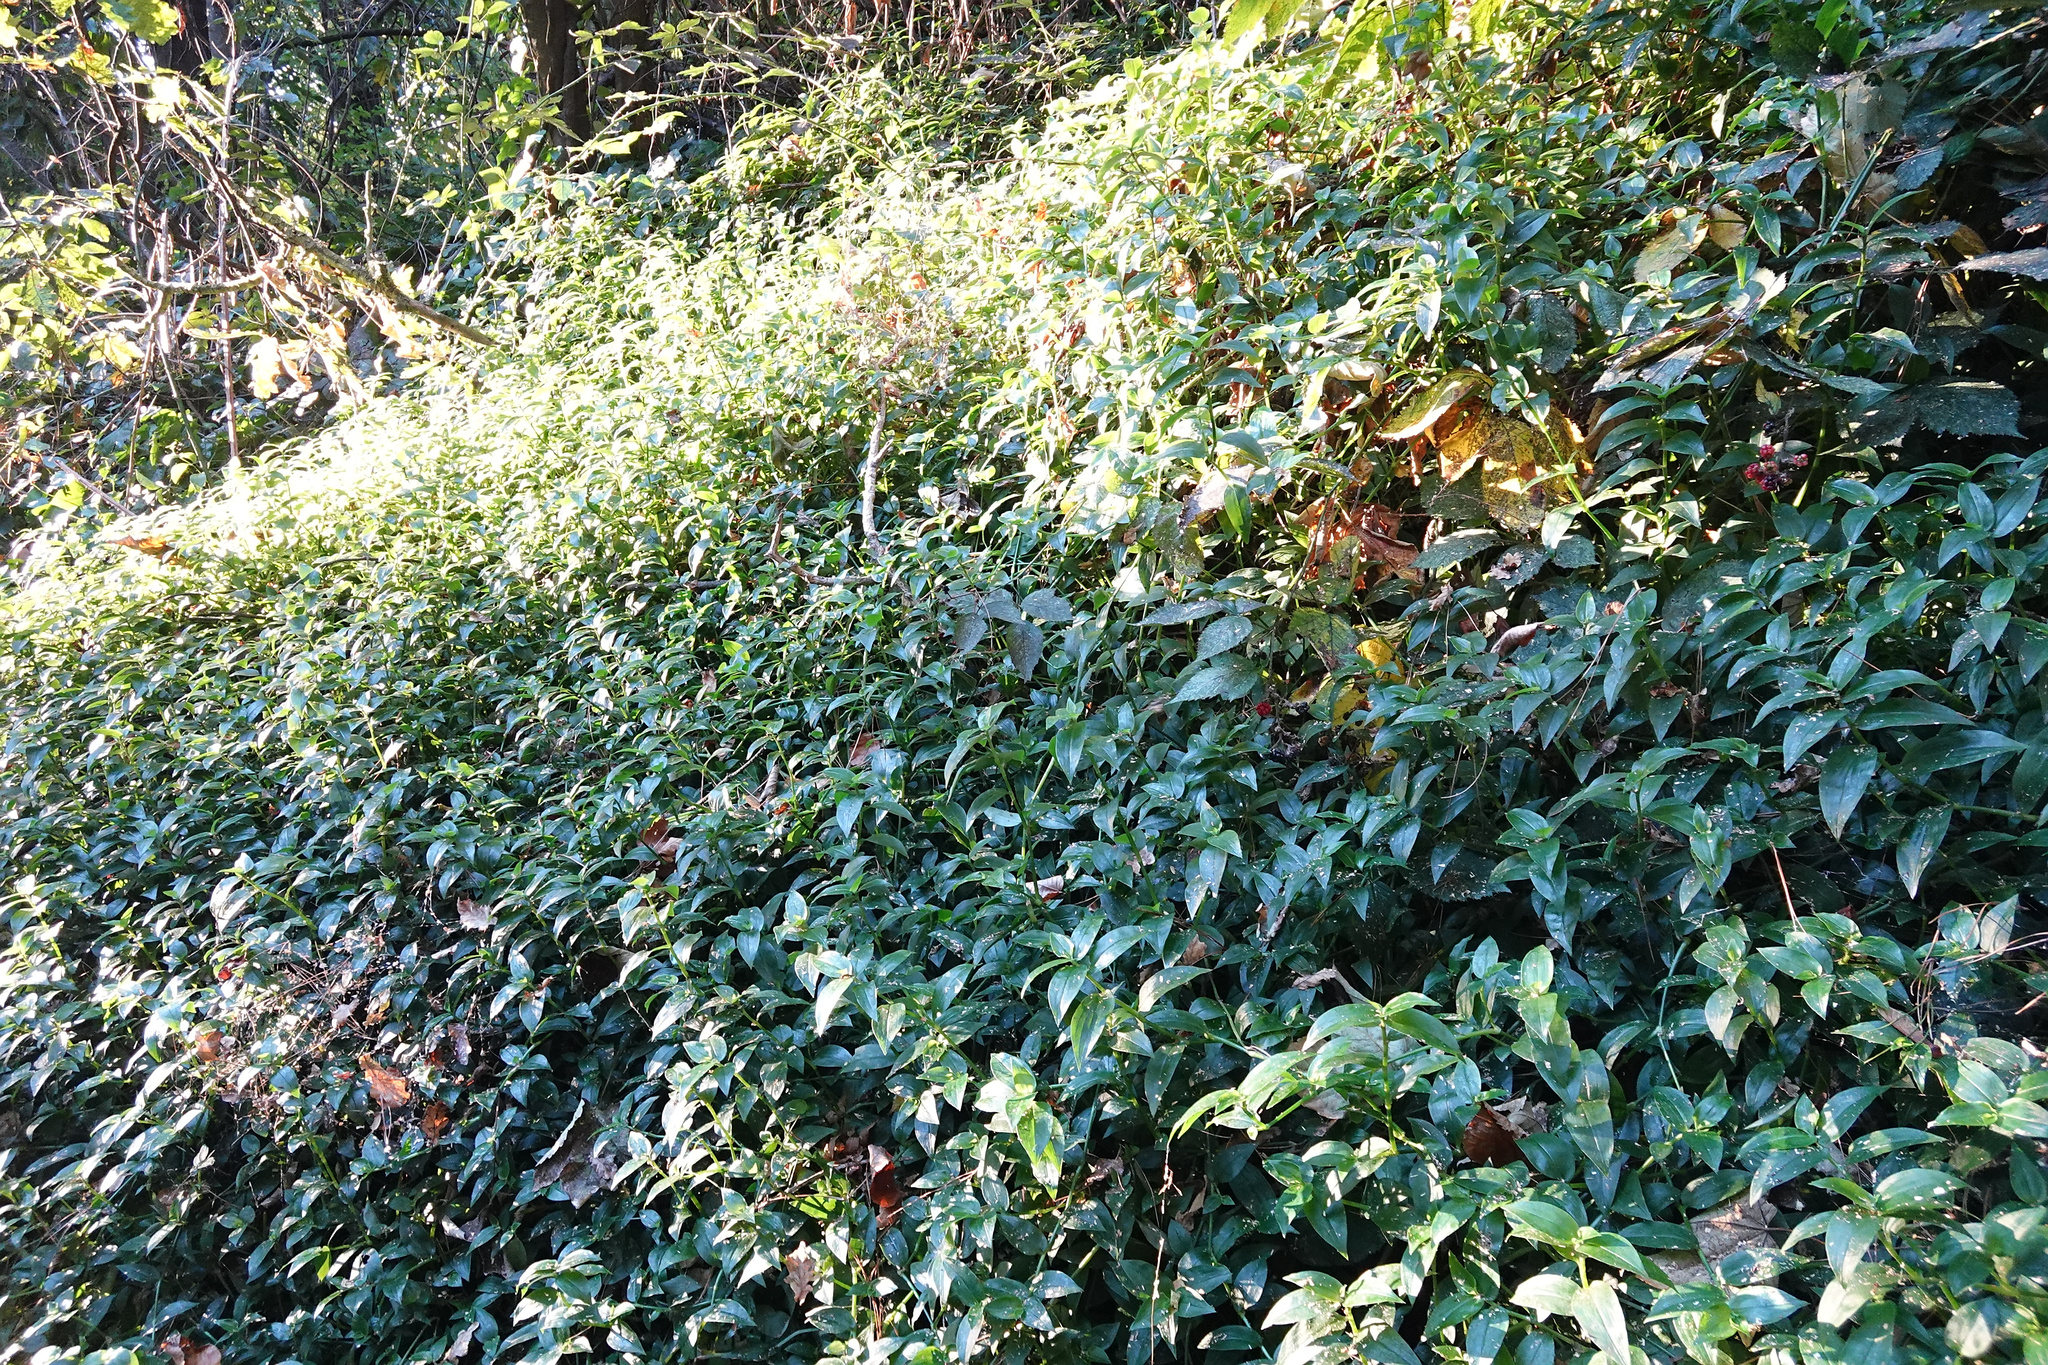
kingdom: Plantae
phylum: Tracheophyta
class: Liliopsida
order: Commelinales
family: Commelinaceae
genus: Tradescantia
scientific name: Tradescantia fluminensis
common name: Wandering-jew
